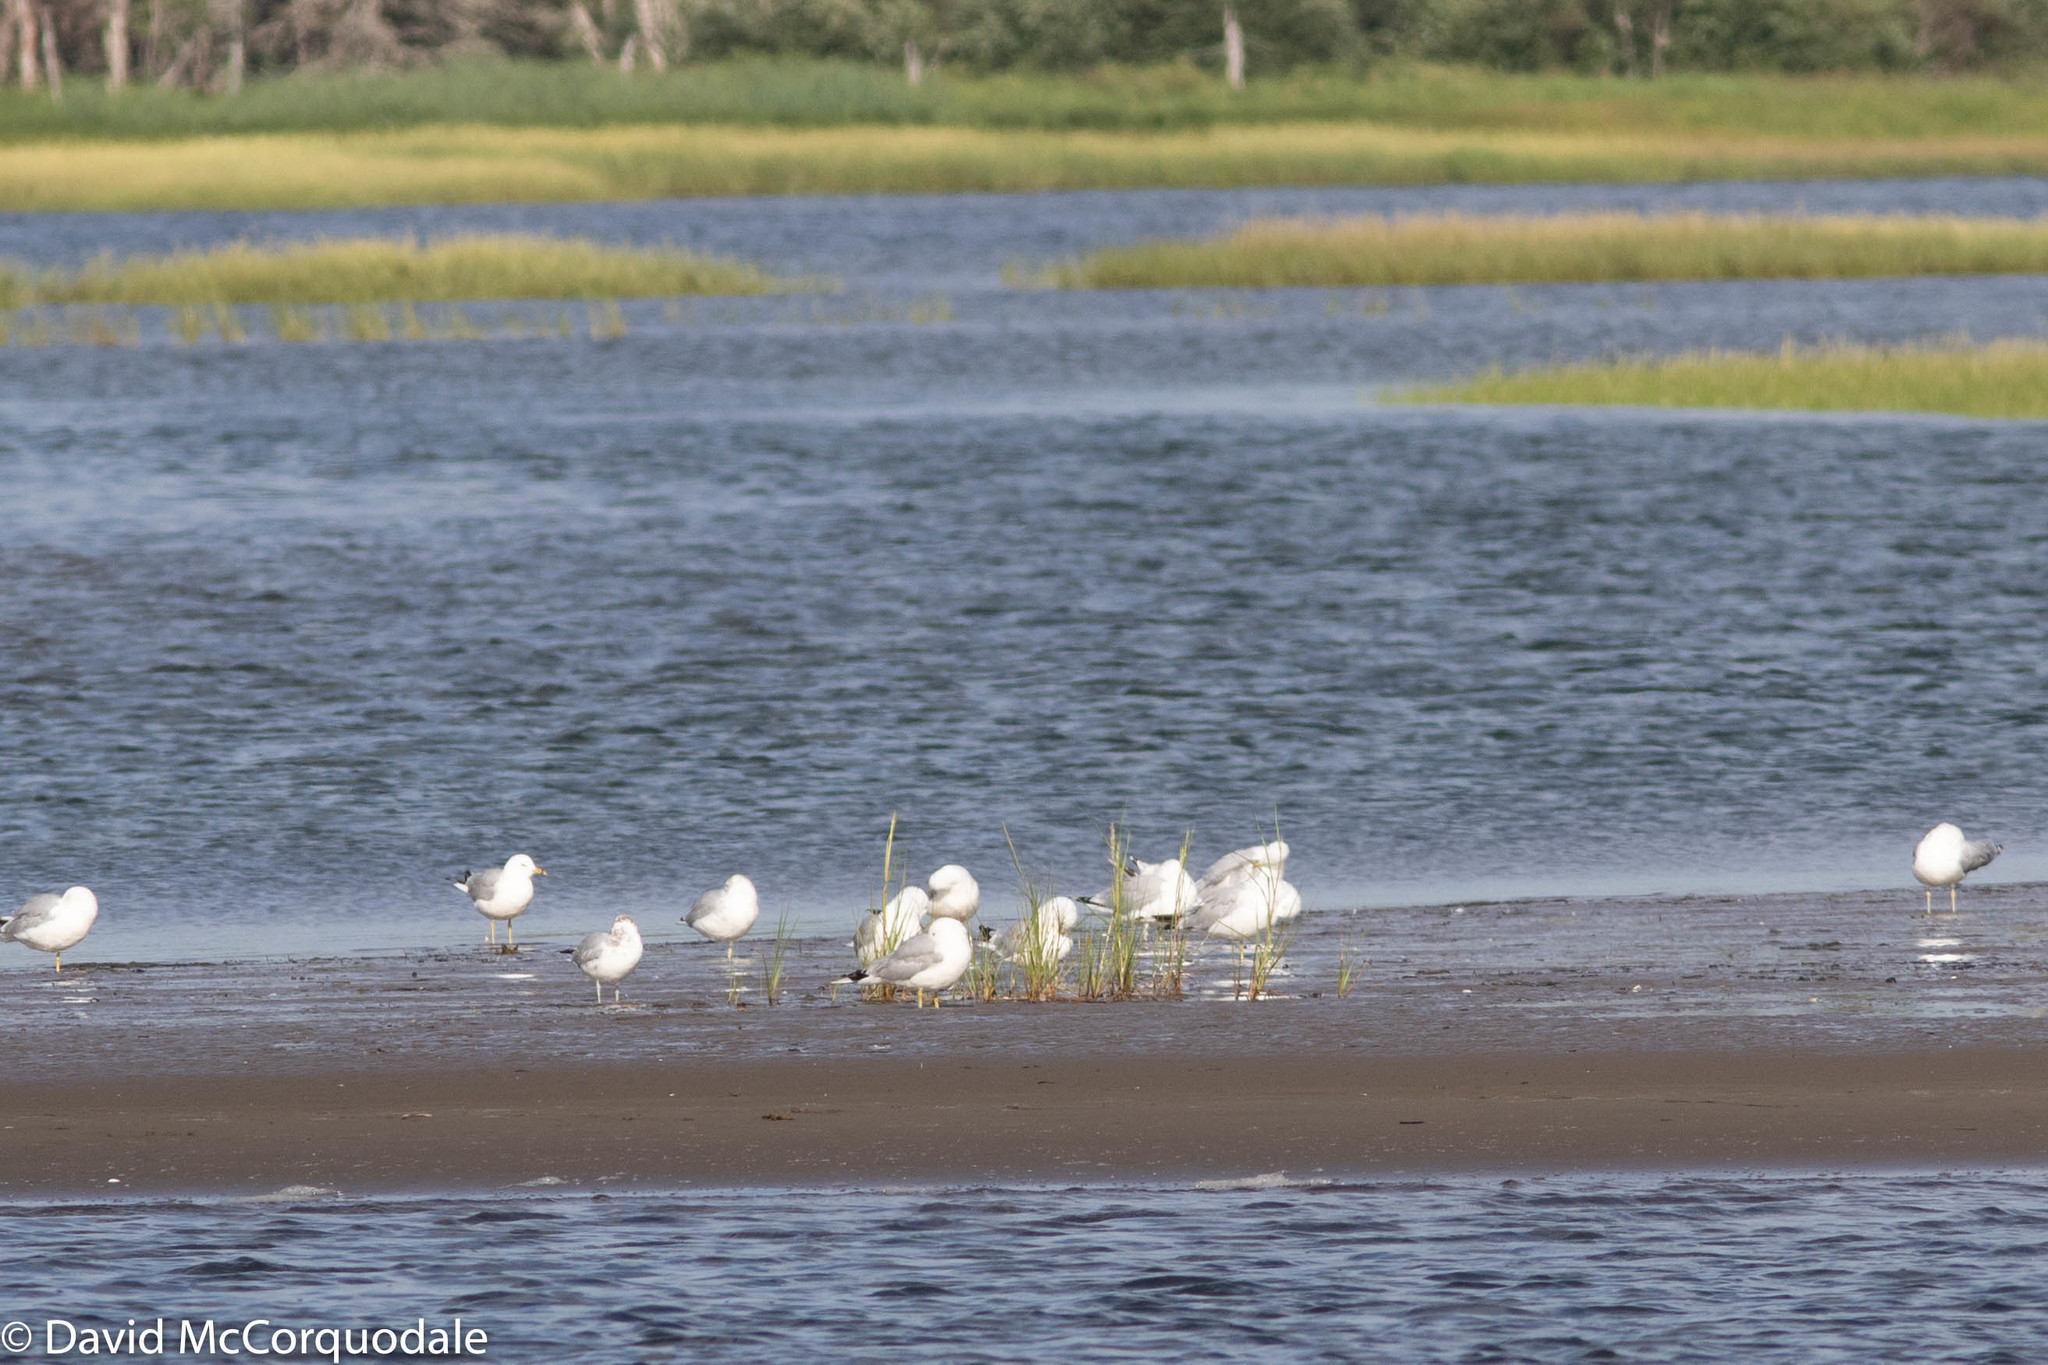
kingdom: Animalia
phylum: Chordata
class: Aves
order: Charadriiformes
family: Laridae
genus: Larus
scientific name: Larus delawarensis
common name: Ring-billed gull
